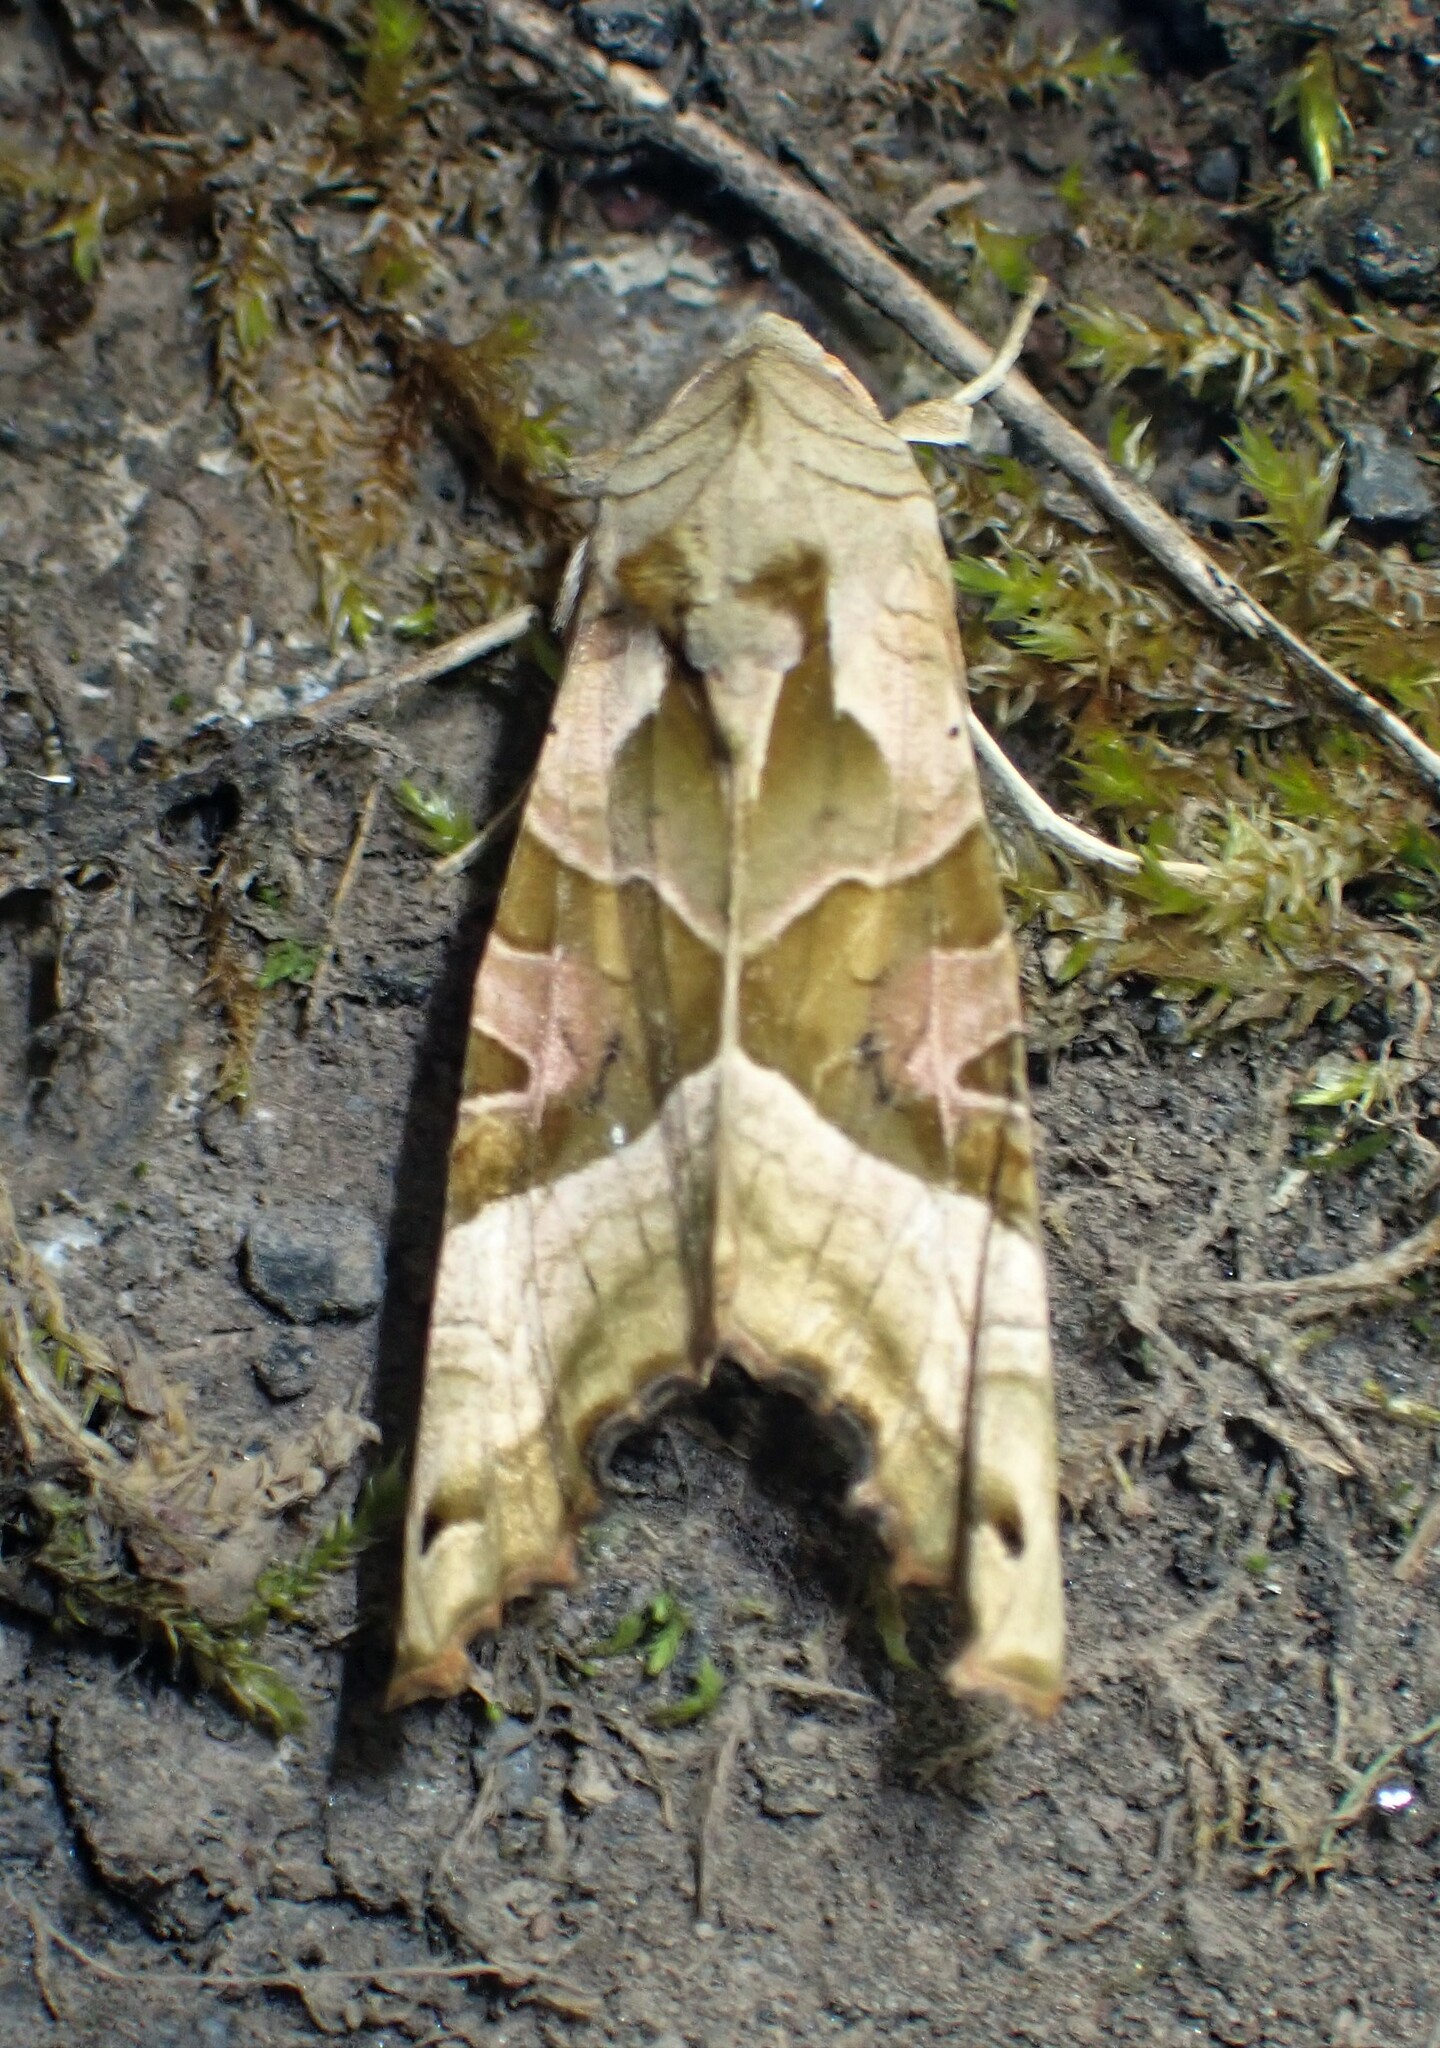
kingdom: Animalia
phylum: Arthropoda
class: Insecta
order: Lepidoptera
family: Noctuidae
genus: Phlogophora
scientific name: Phlogophora meticulosa
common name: Angle shades
